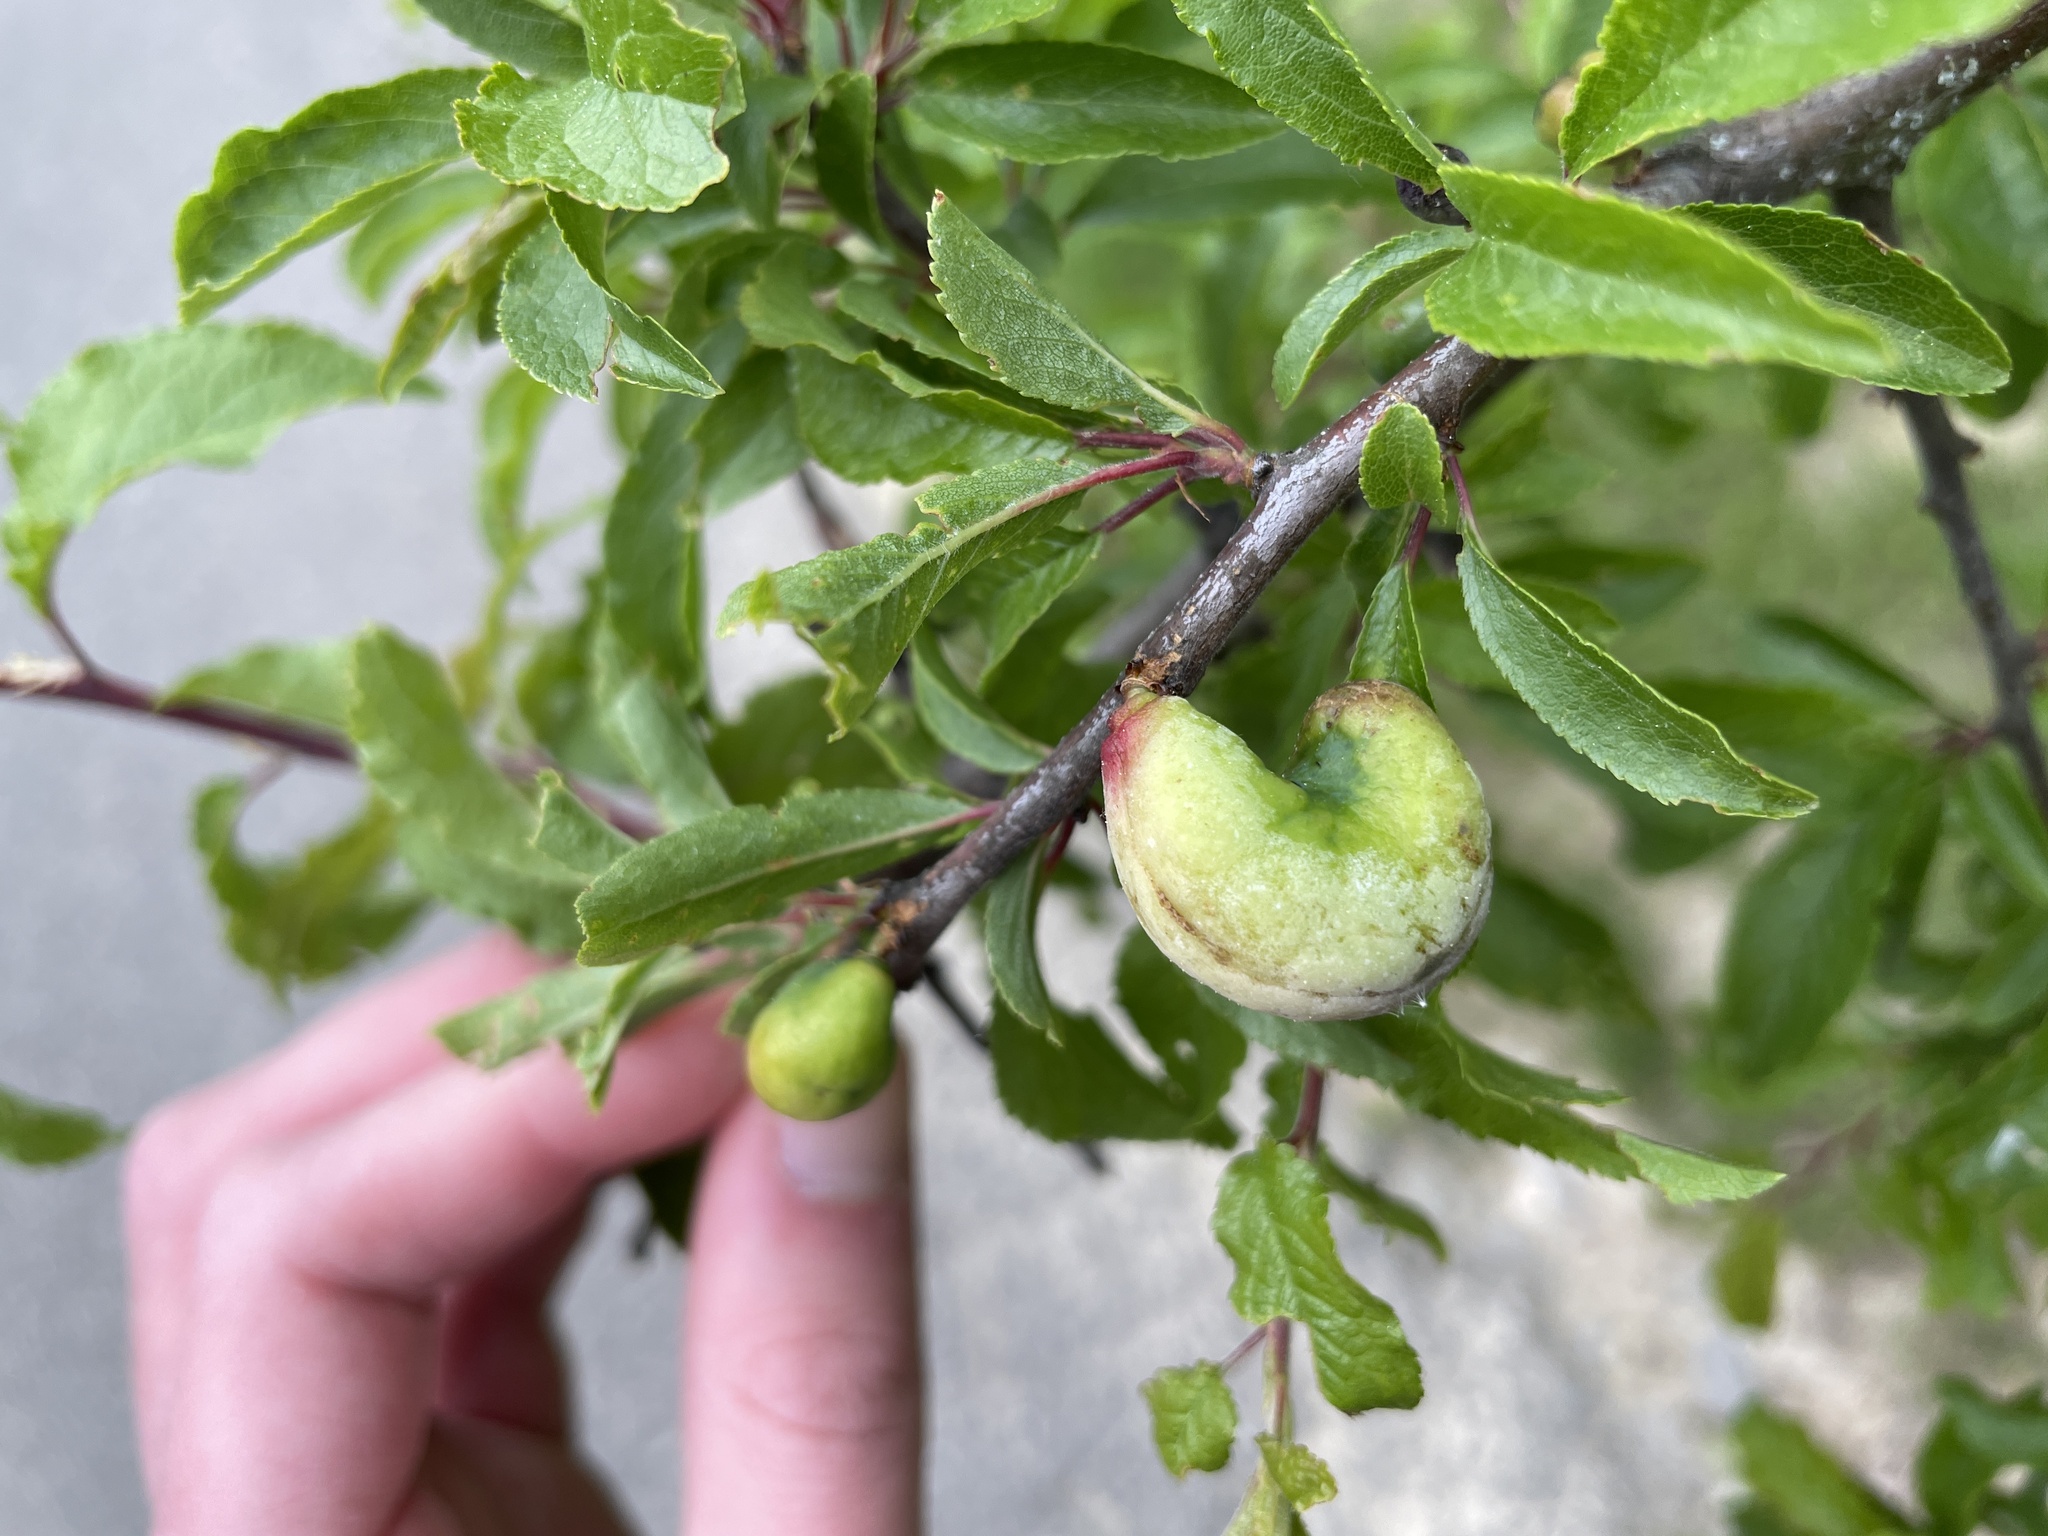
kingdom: Fungi
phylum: Ascomycota
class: Taphrinomycetes
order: Taphrinales
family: Taphrinaceae
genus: Taphrina
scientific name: Taphrina pruni
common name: Pocket plum
